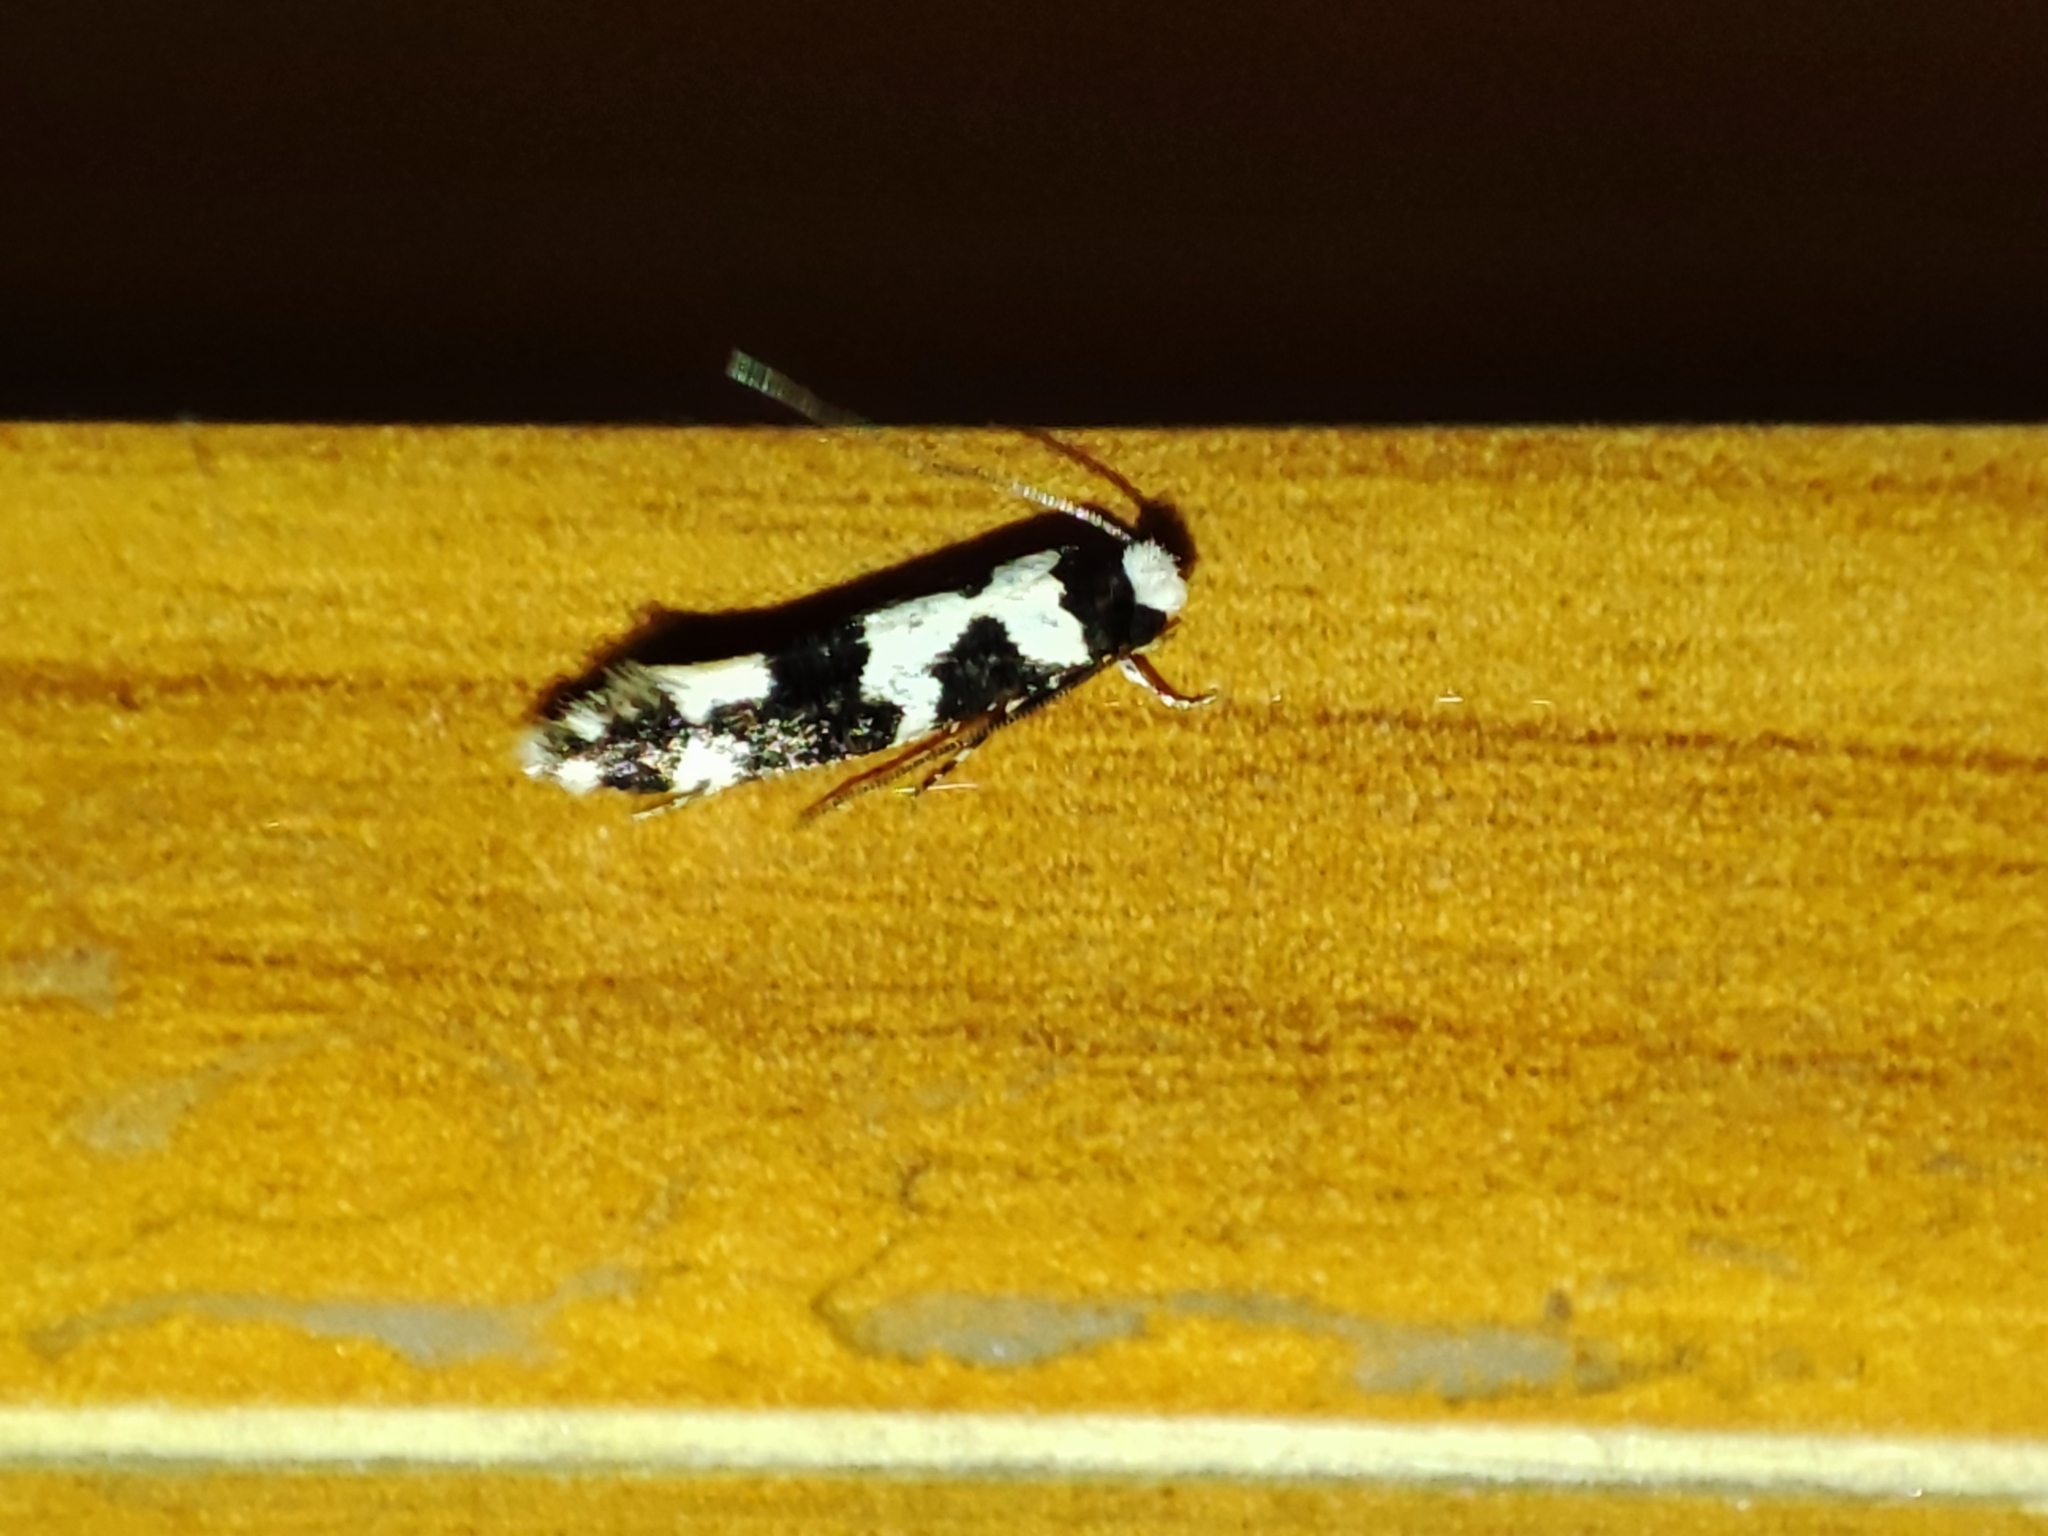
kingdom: Animalia
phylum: Arthropoda
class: Insecta
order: Lepidoptera
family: Tineidae
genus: Neurothaumasia
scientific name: Neurothaumasia ankerella
